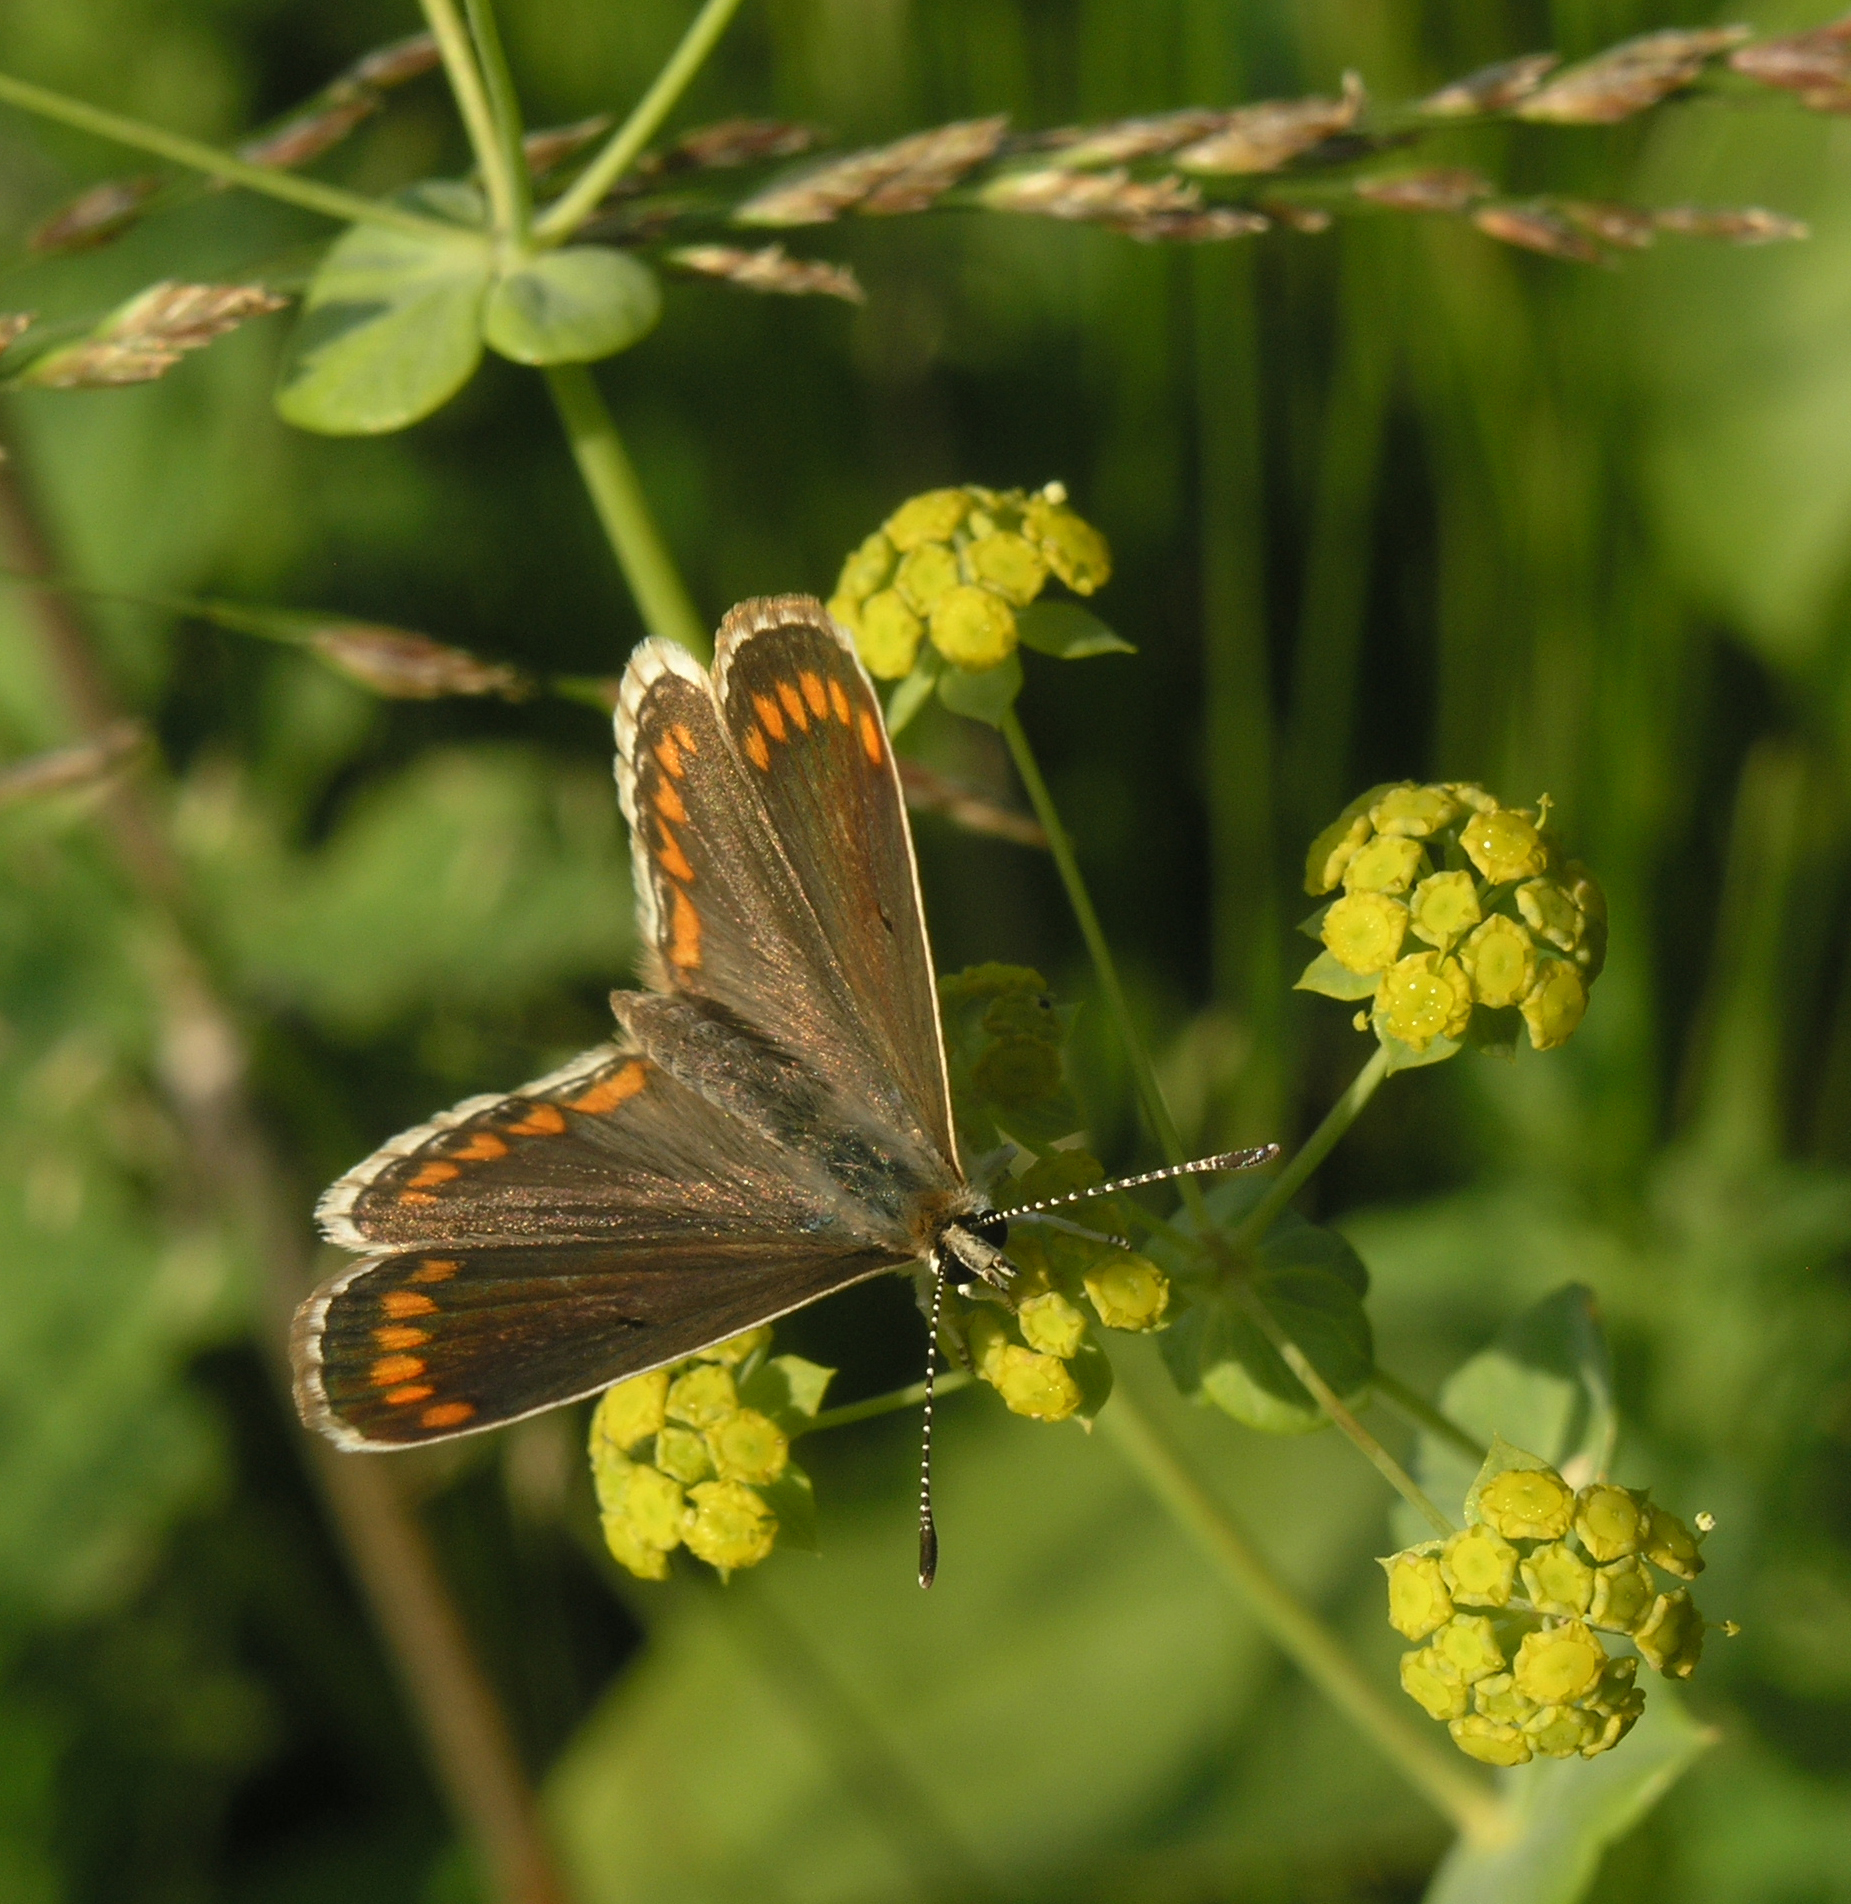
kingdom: Plantae
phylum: Tracheophyta
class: Magnoliopsida
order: Apiales
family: Apiaceae
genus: Bupleurum
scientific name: Bupleurum aureum
